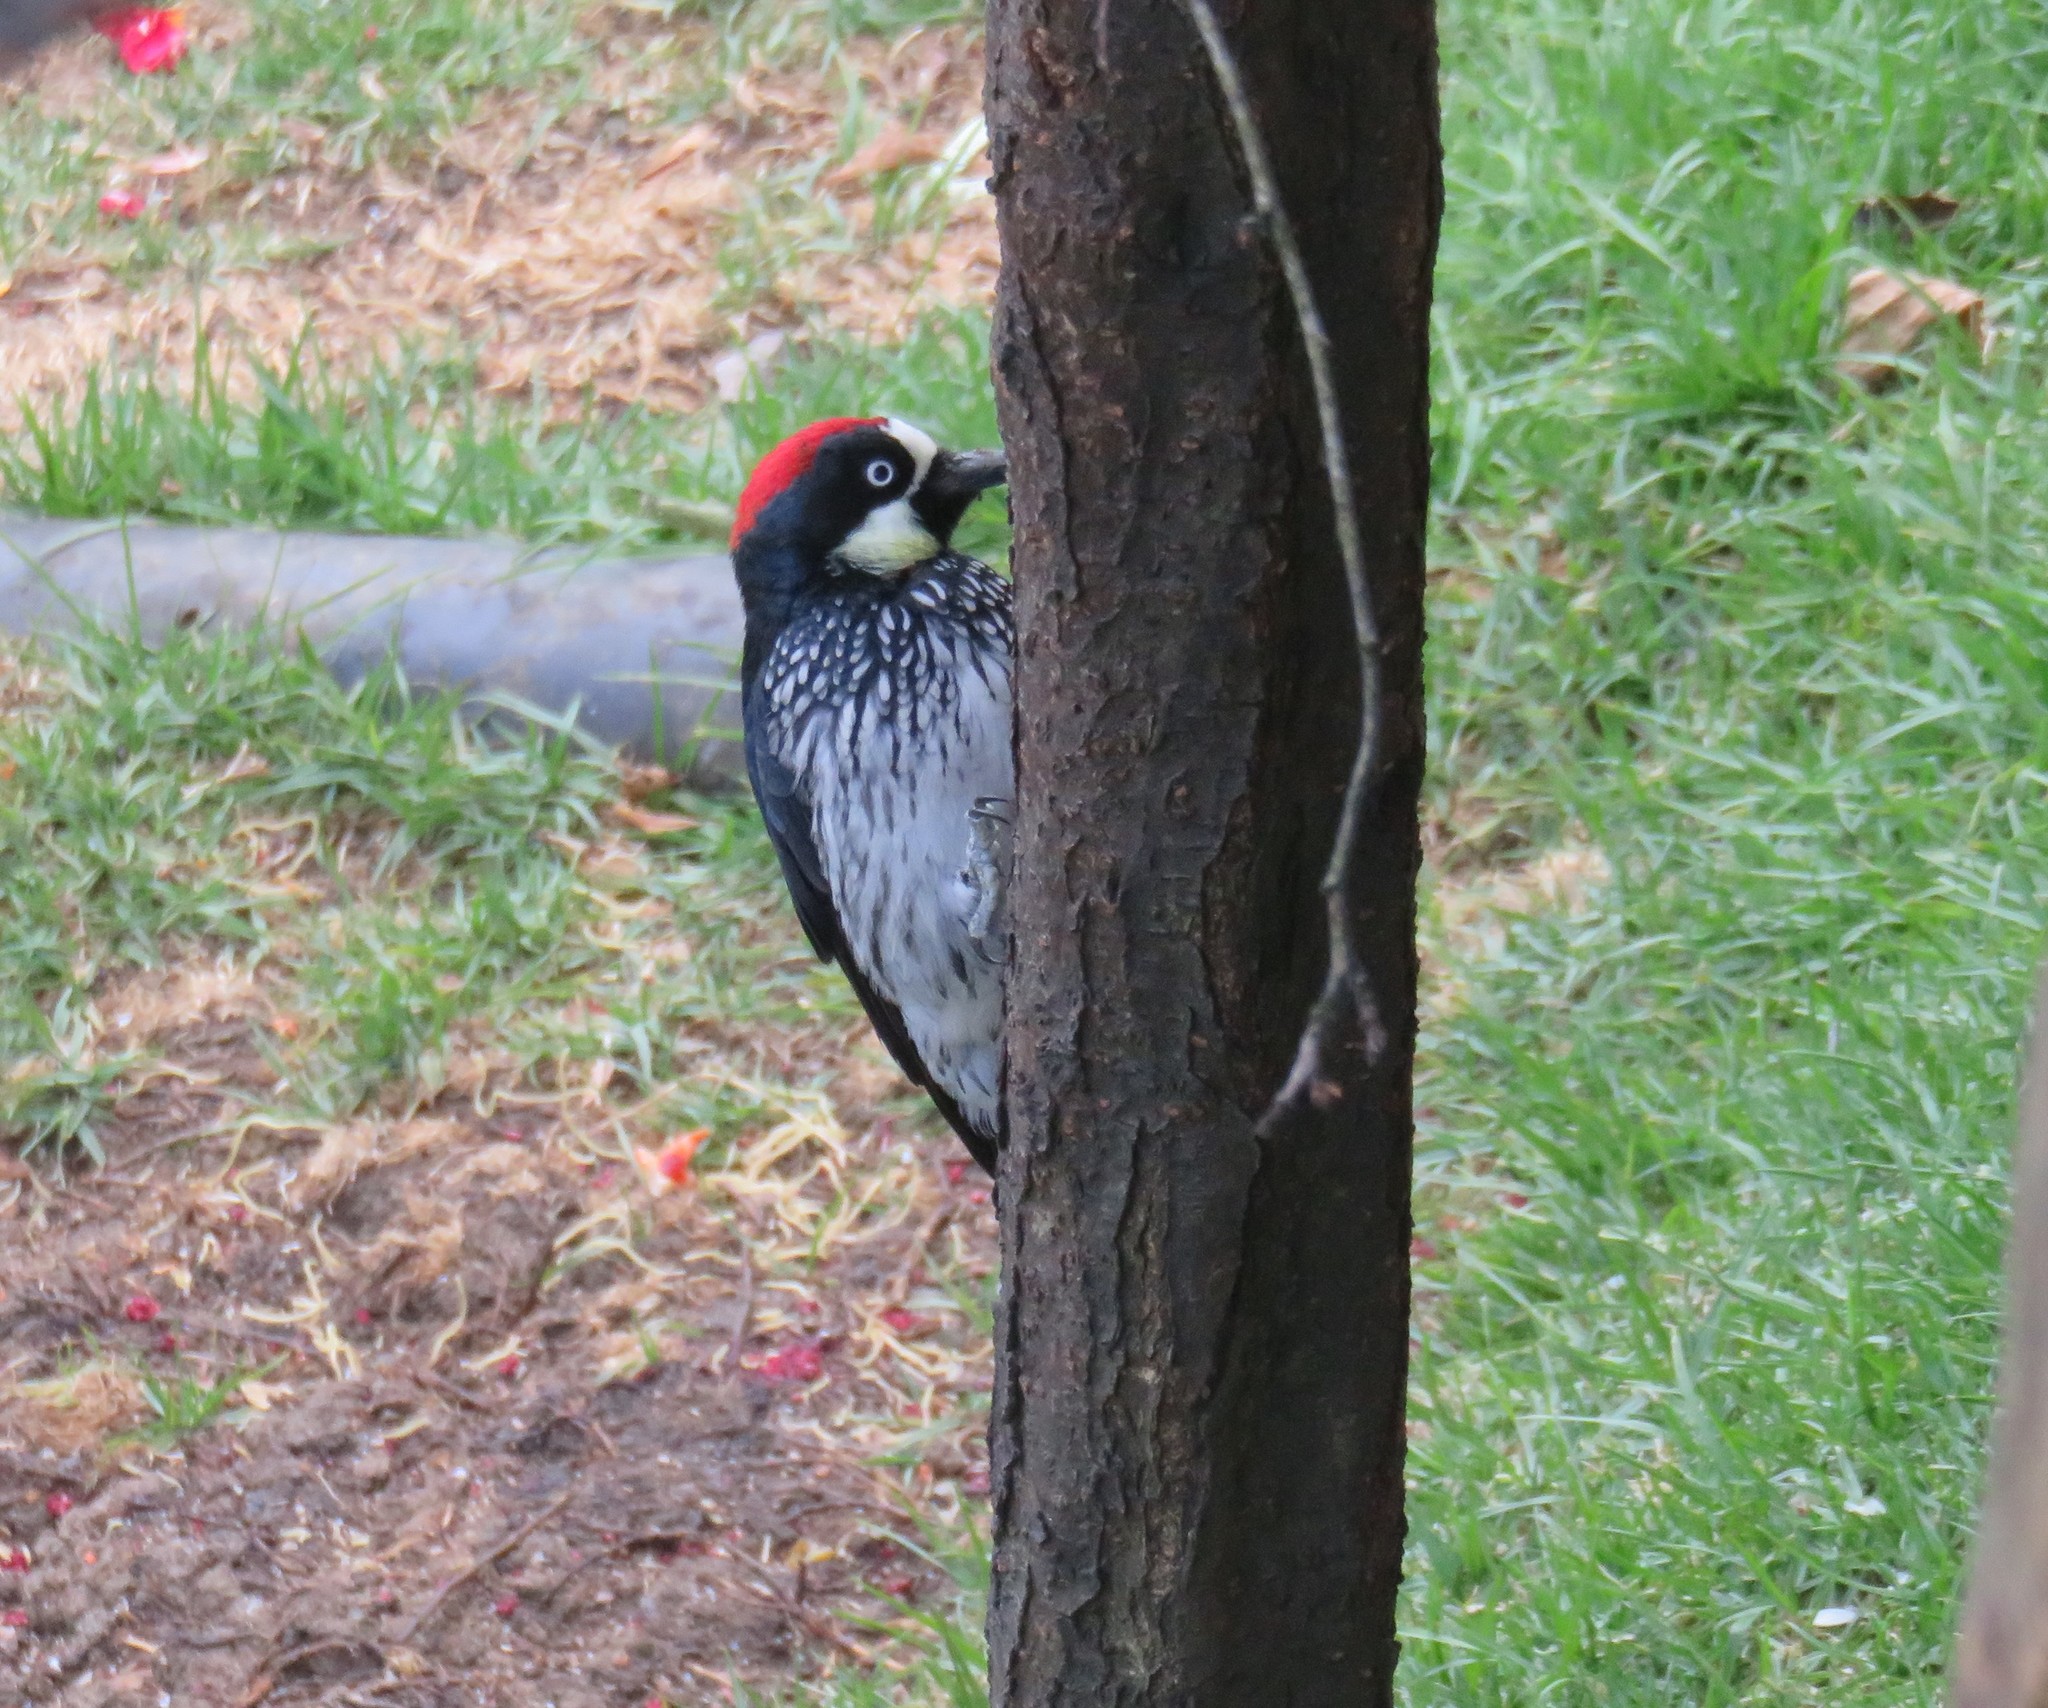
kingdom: Animalia
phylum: Chordata
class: Aves
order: Piciformes
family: Picidae
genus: Melanerpes
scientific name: Melanerpes formicivorus
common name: Acorn woodpecker
